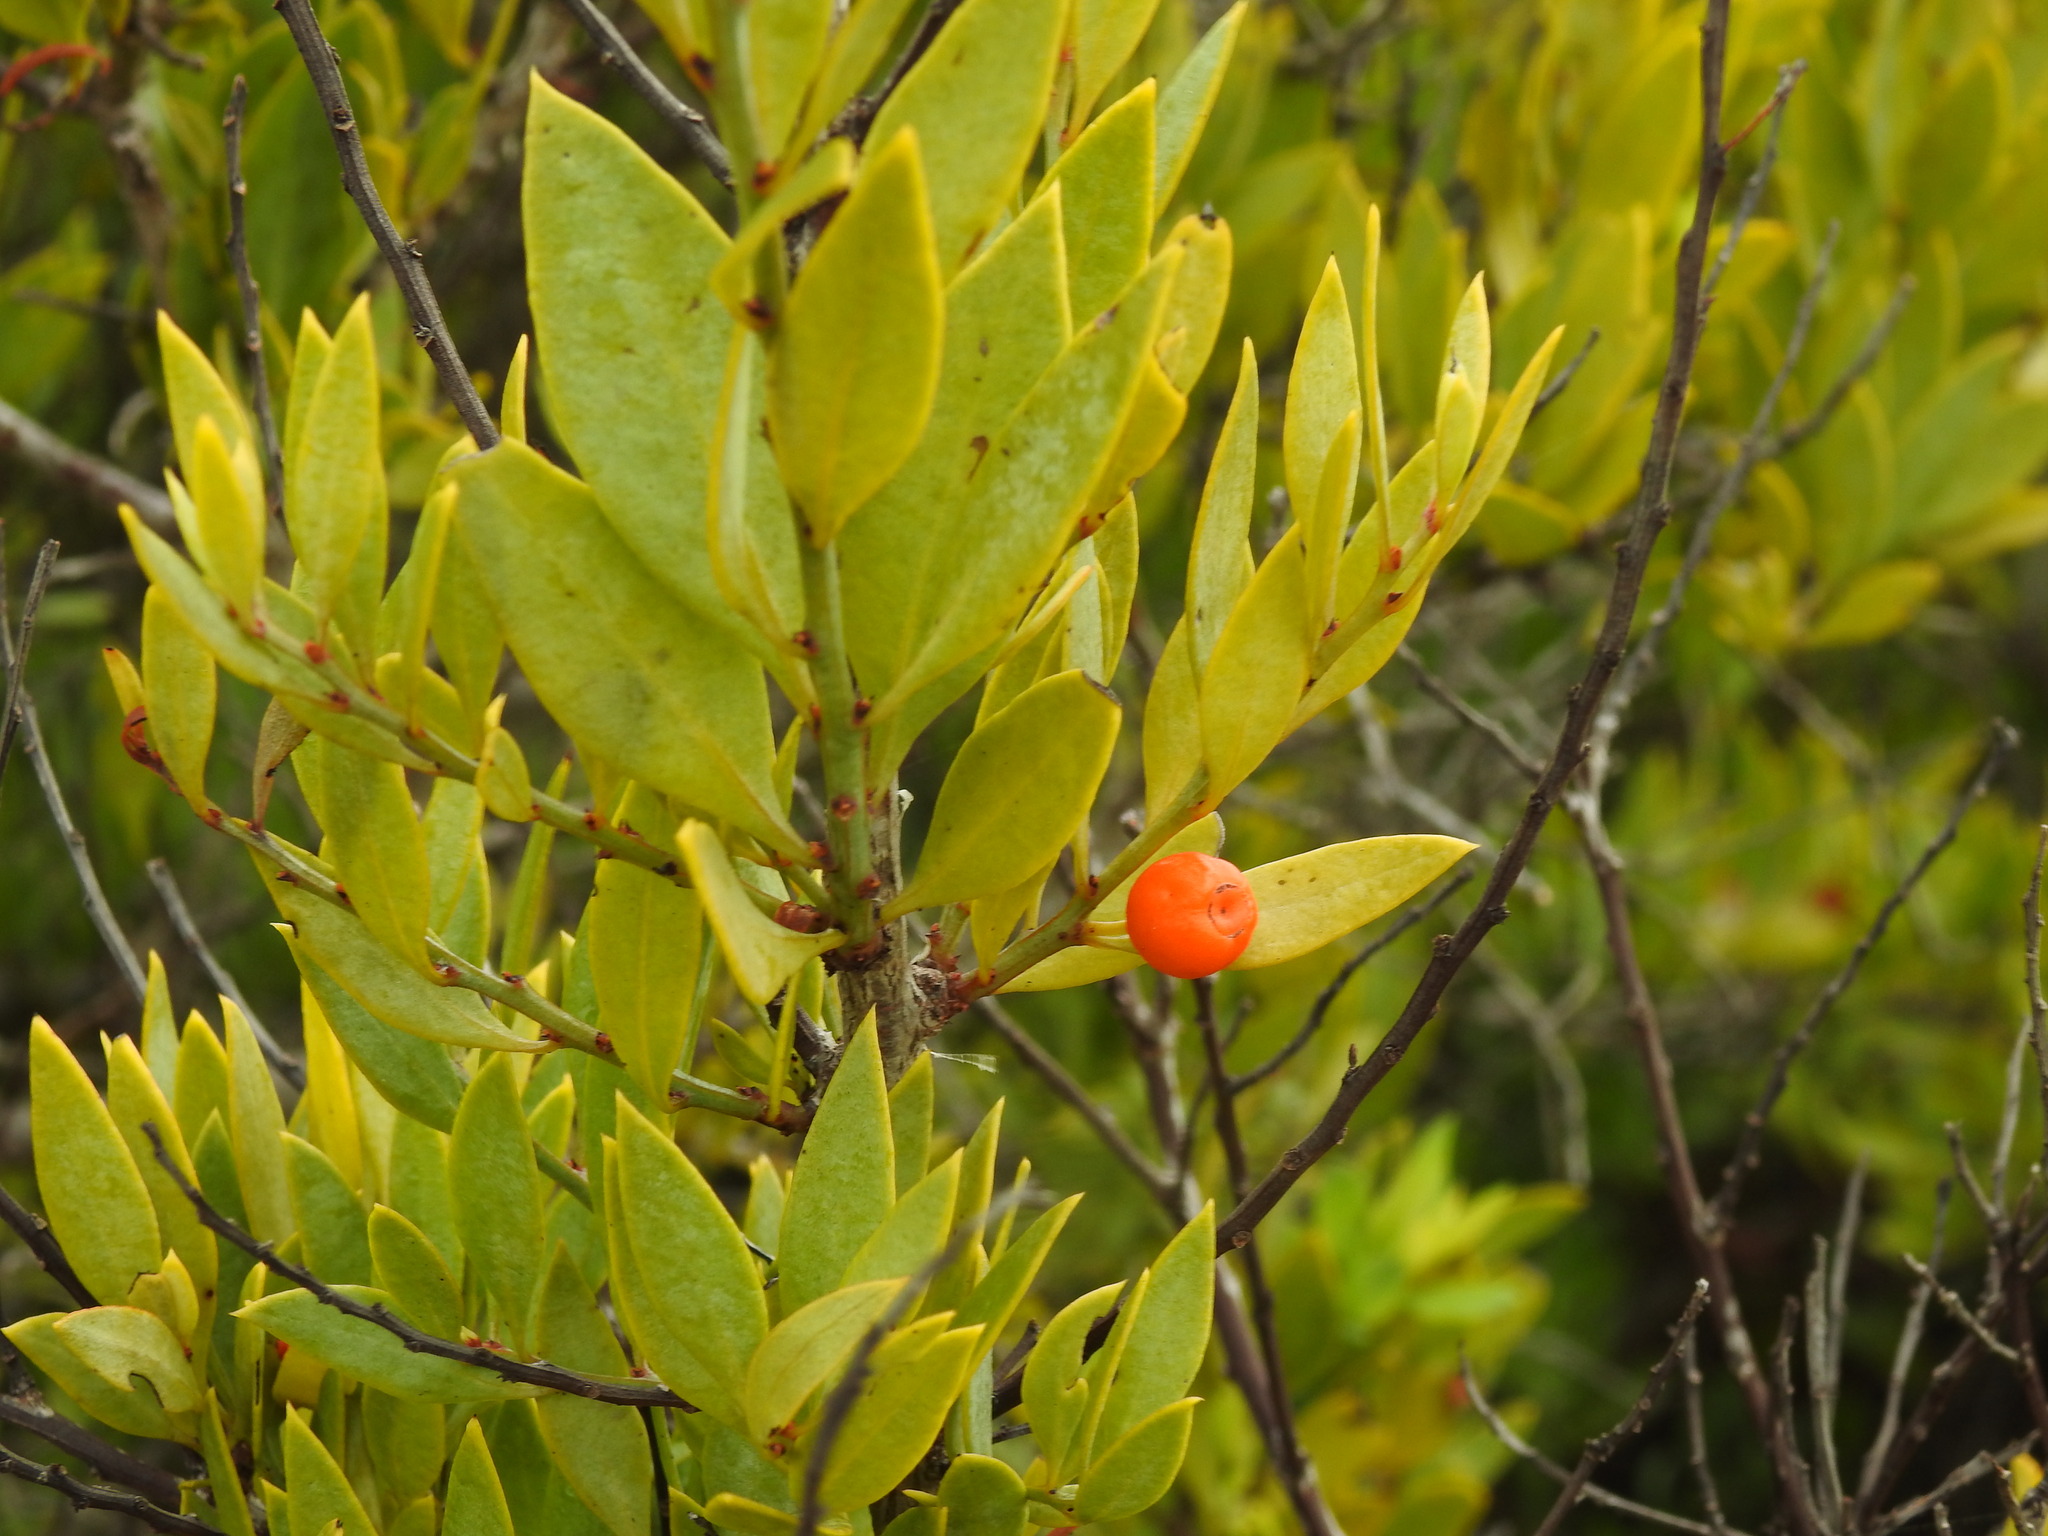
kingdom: Plantae
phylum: Tracheophyta
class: Magnoliopsida
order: Santalales
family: Santalaceae
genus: Osyris
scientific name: Osyris lanceolata
